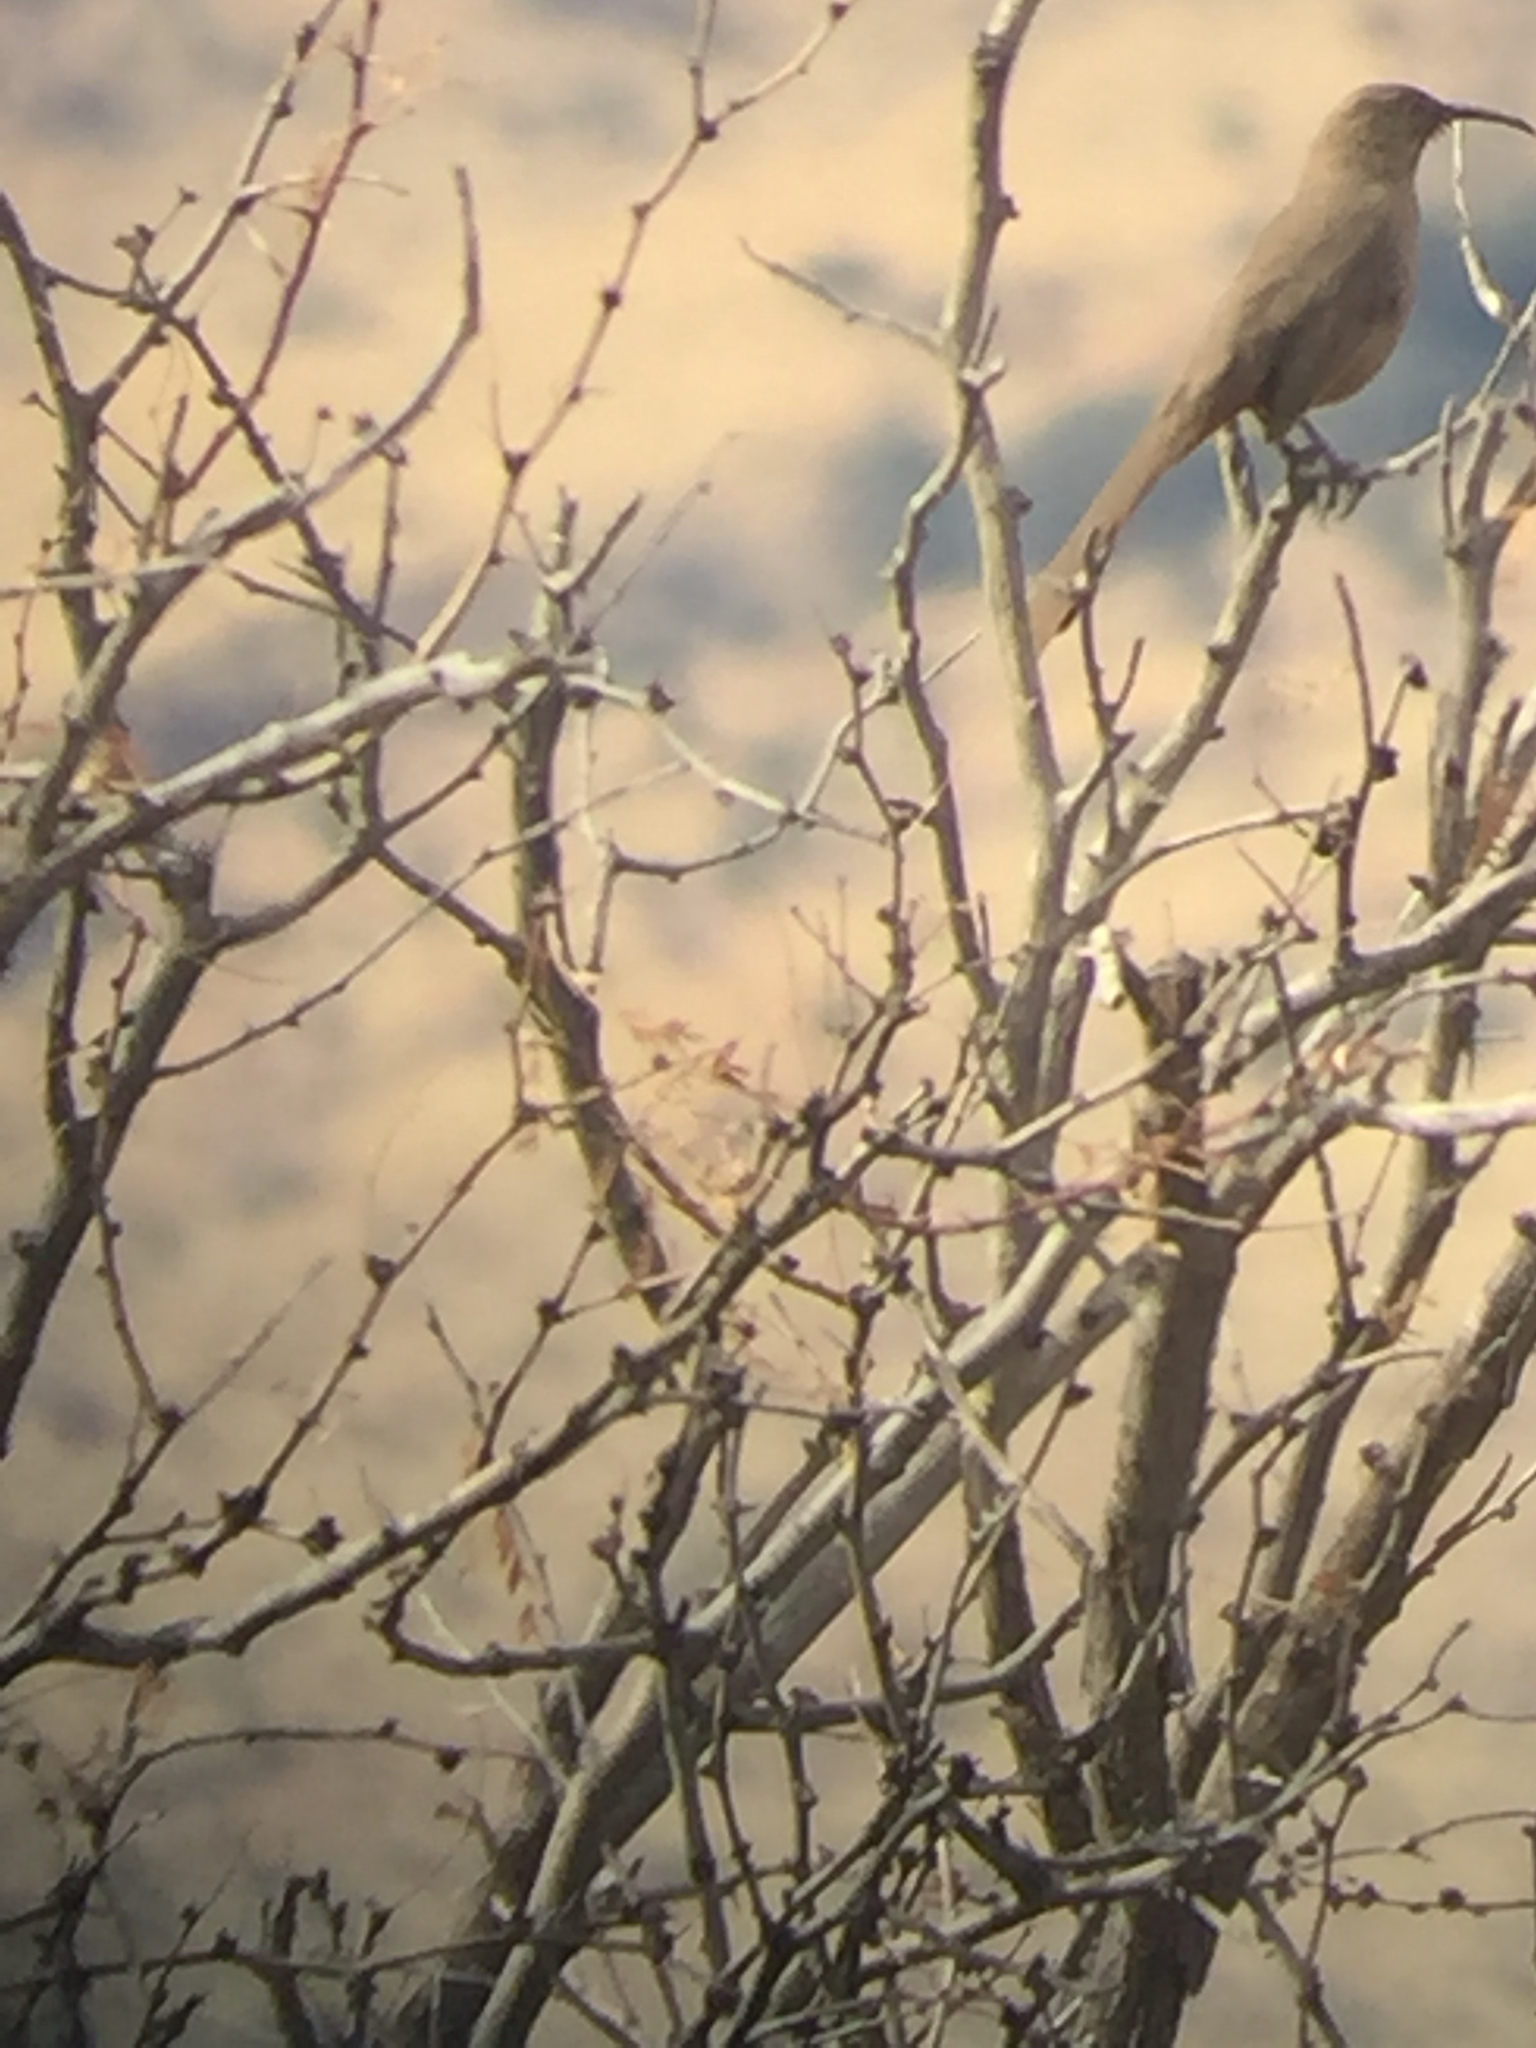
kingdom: Animalia
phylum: Chordata
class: Aves
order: Passeriformes
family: Mimidae
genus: Toxostoma
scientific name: Toxostoma crissale
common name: Crissal thrasher
